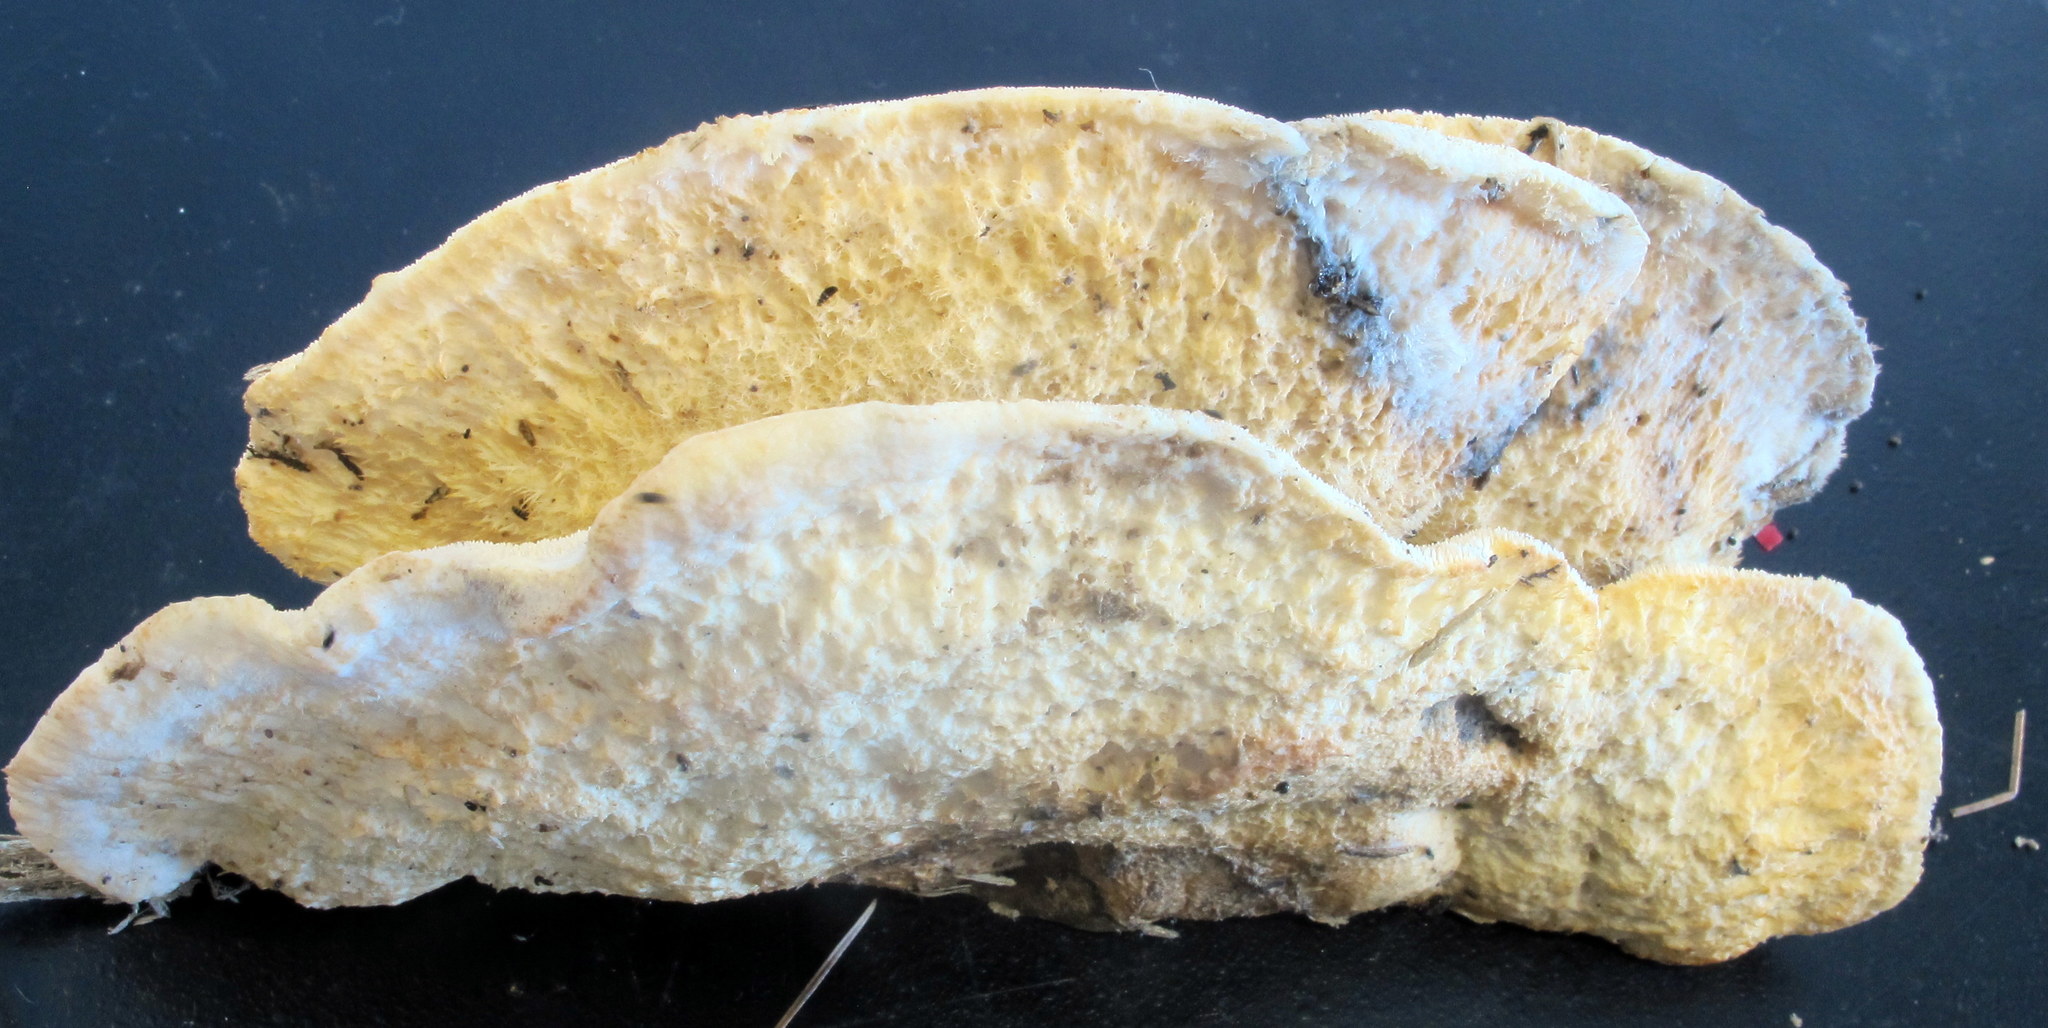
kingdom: Fungi
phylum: Basidiomycota
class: Agaricomycetes
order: Polyporales
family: Meruliaceae
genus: Climacodon
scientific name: Climacodon septentrionalis
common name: Northern tooth
